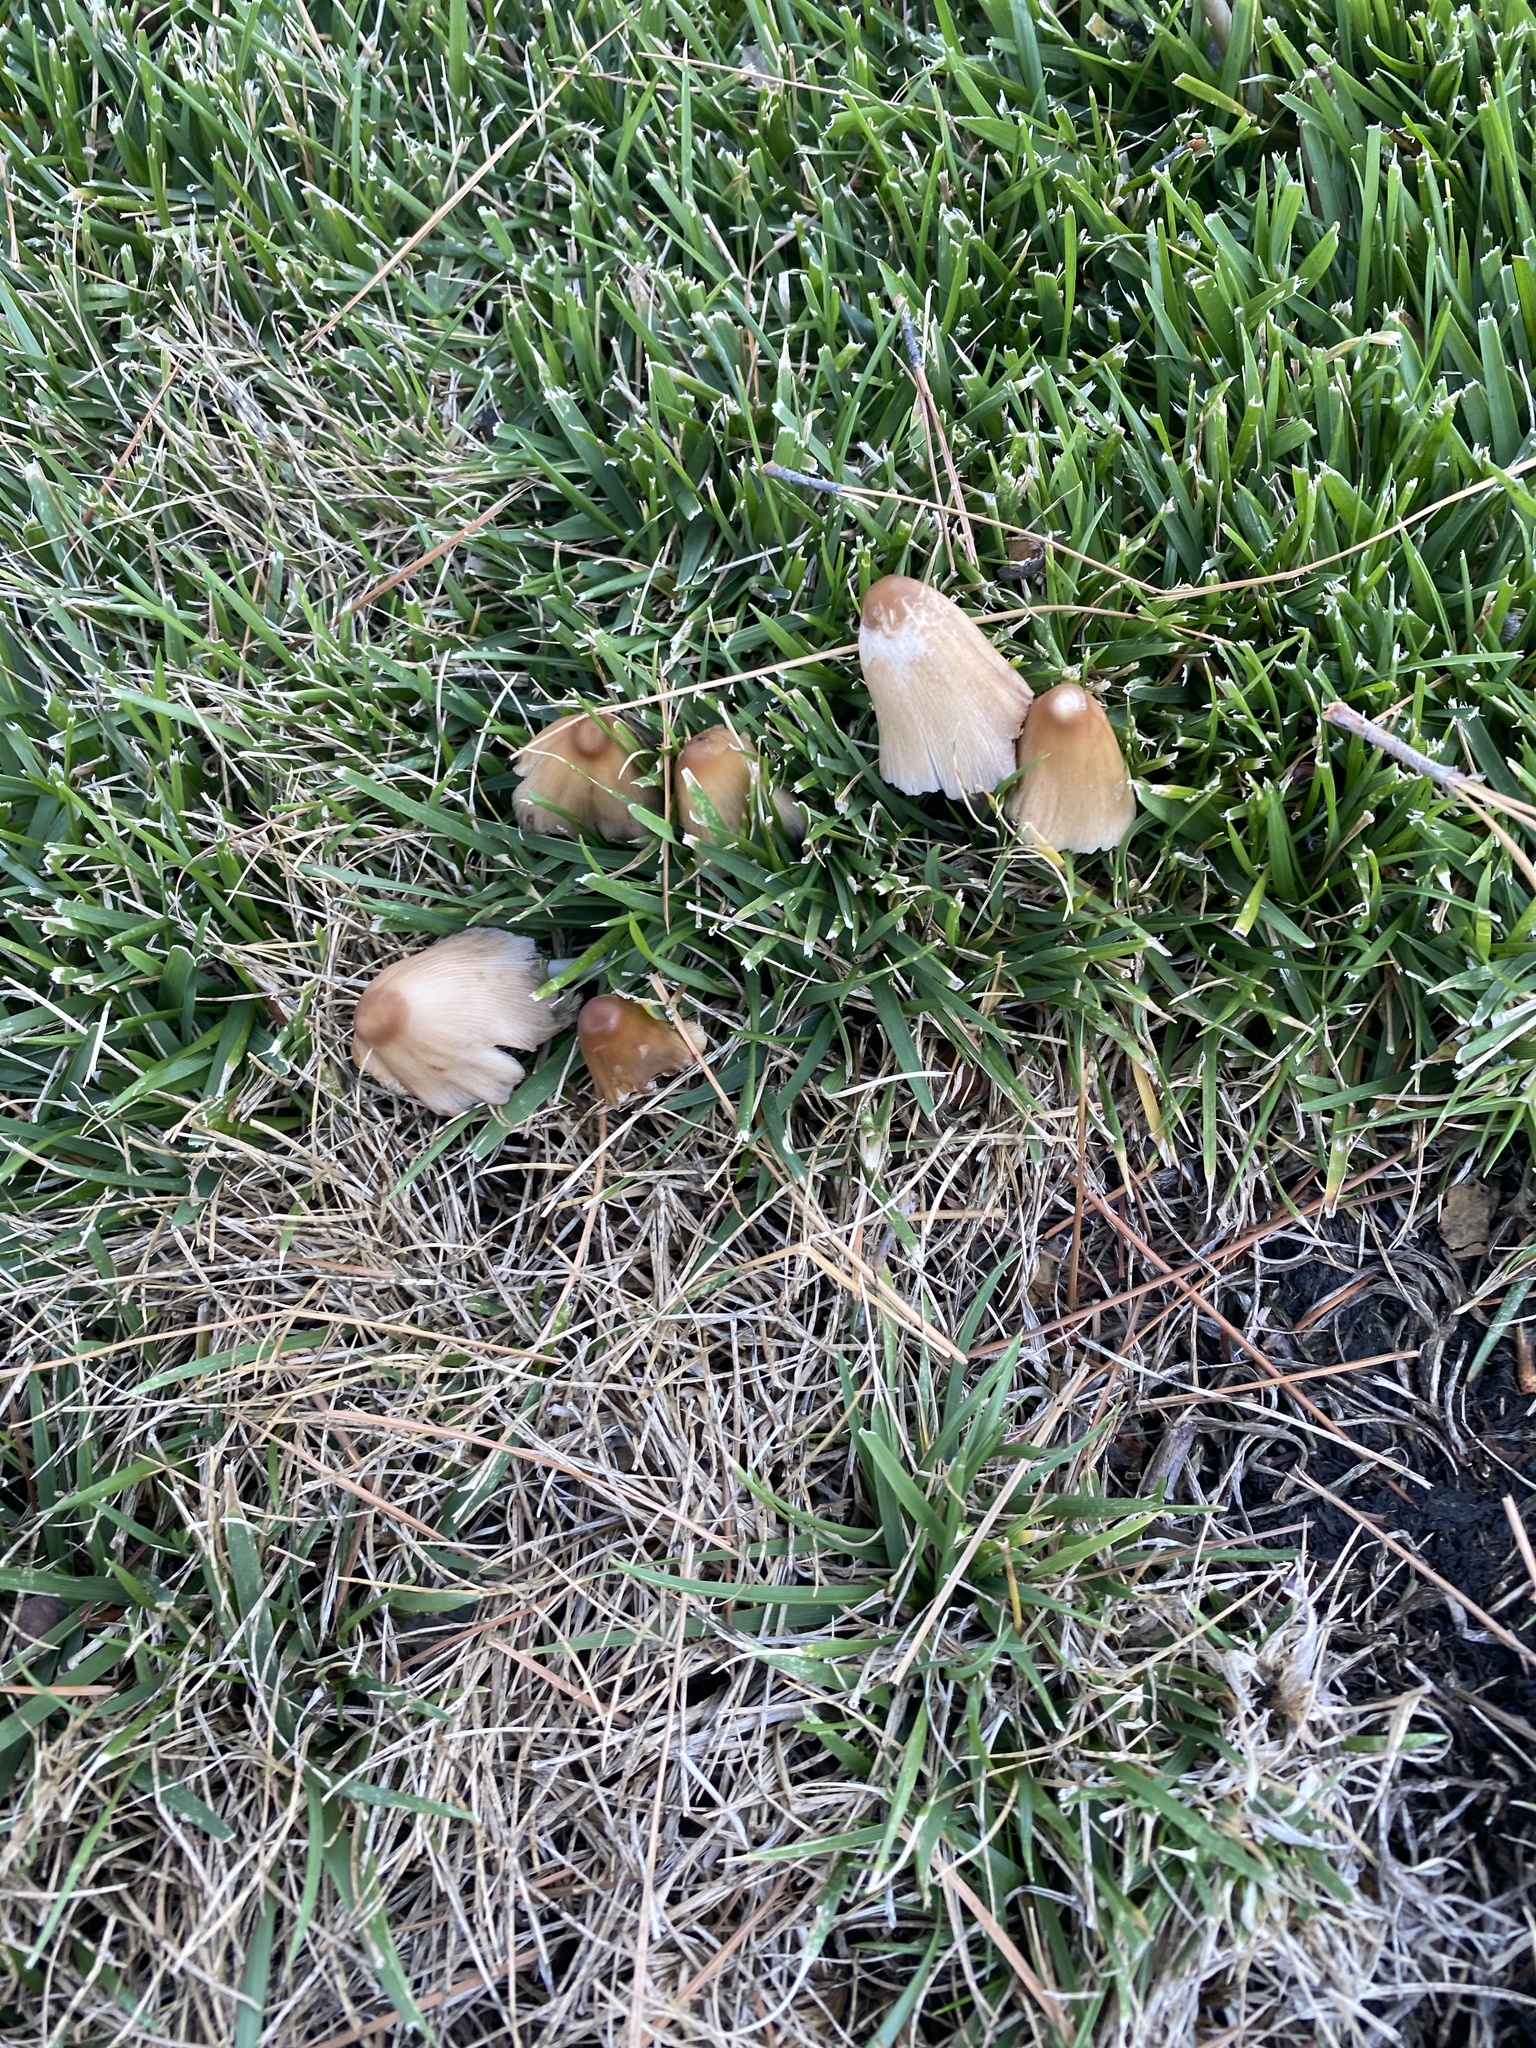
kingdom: Fungi
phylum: Basidiomycota
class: Agaricomycetes
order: Agaricales
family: Psathyrellaceae
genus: Coprinellus
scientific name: Coprinellus micaceus
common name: Glistening ink-cap
